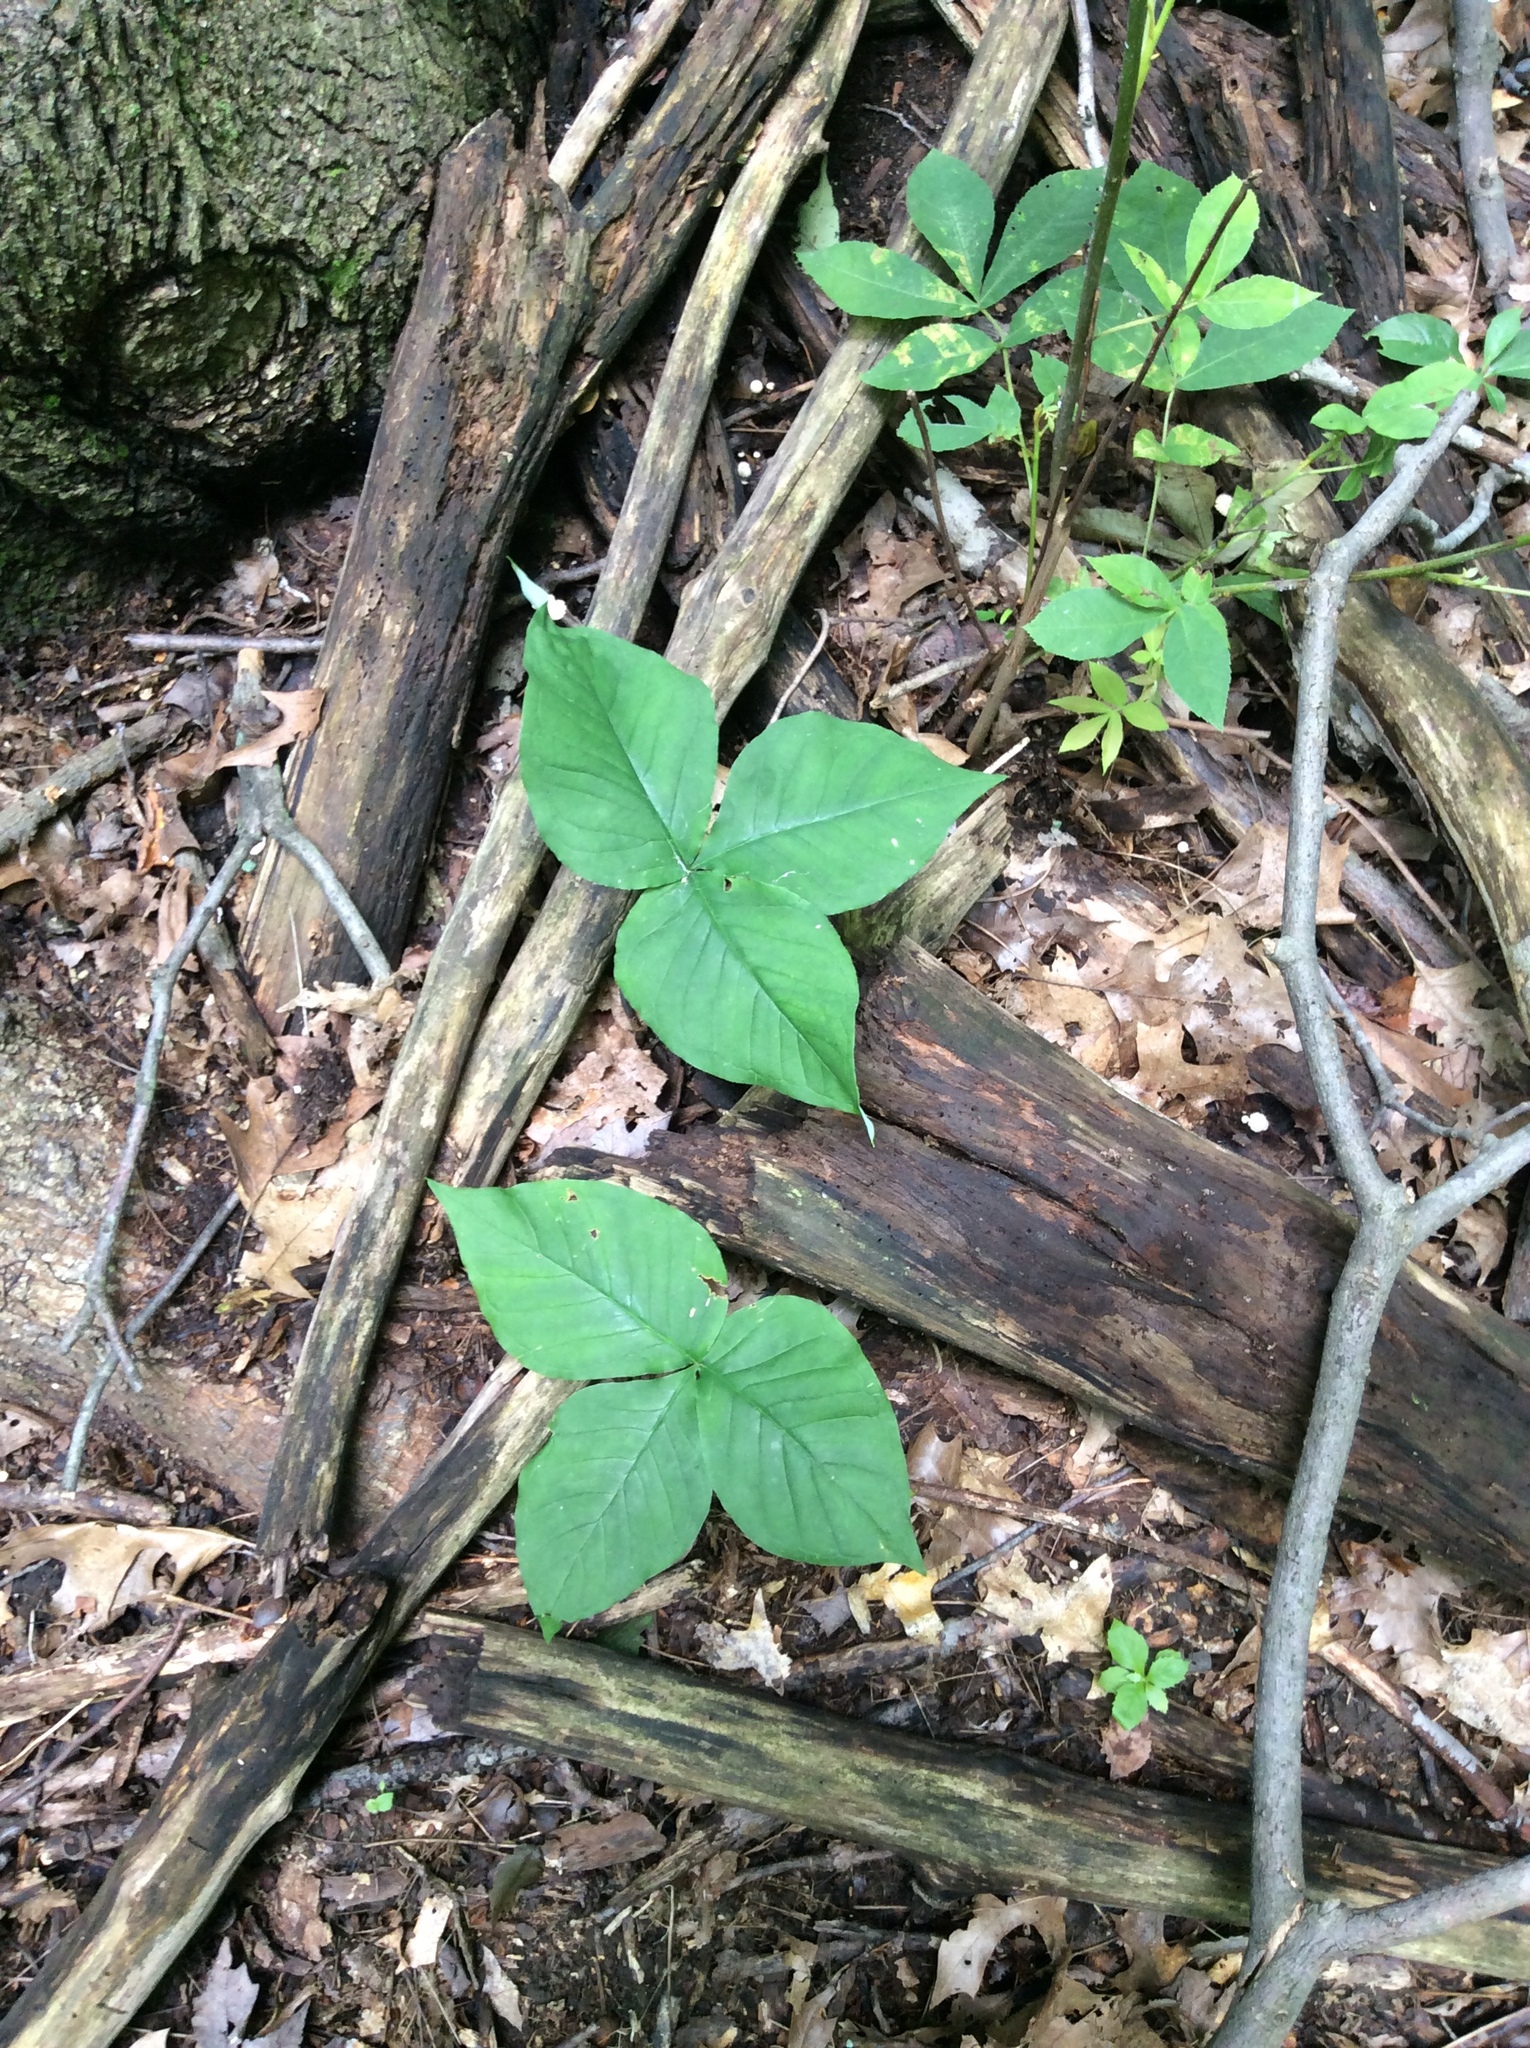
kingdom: Plantae
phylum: Tracheophyta
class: Liliopsida
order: Alismatales
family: Araceae
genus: Arisaema
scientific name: Arisaema triphyllum
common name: Jack-in-the-pulpit
